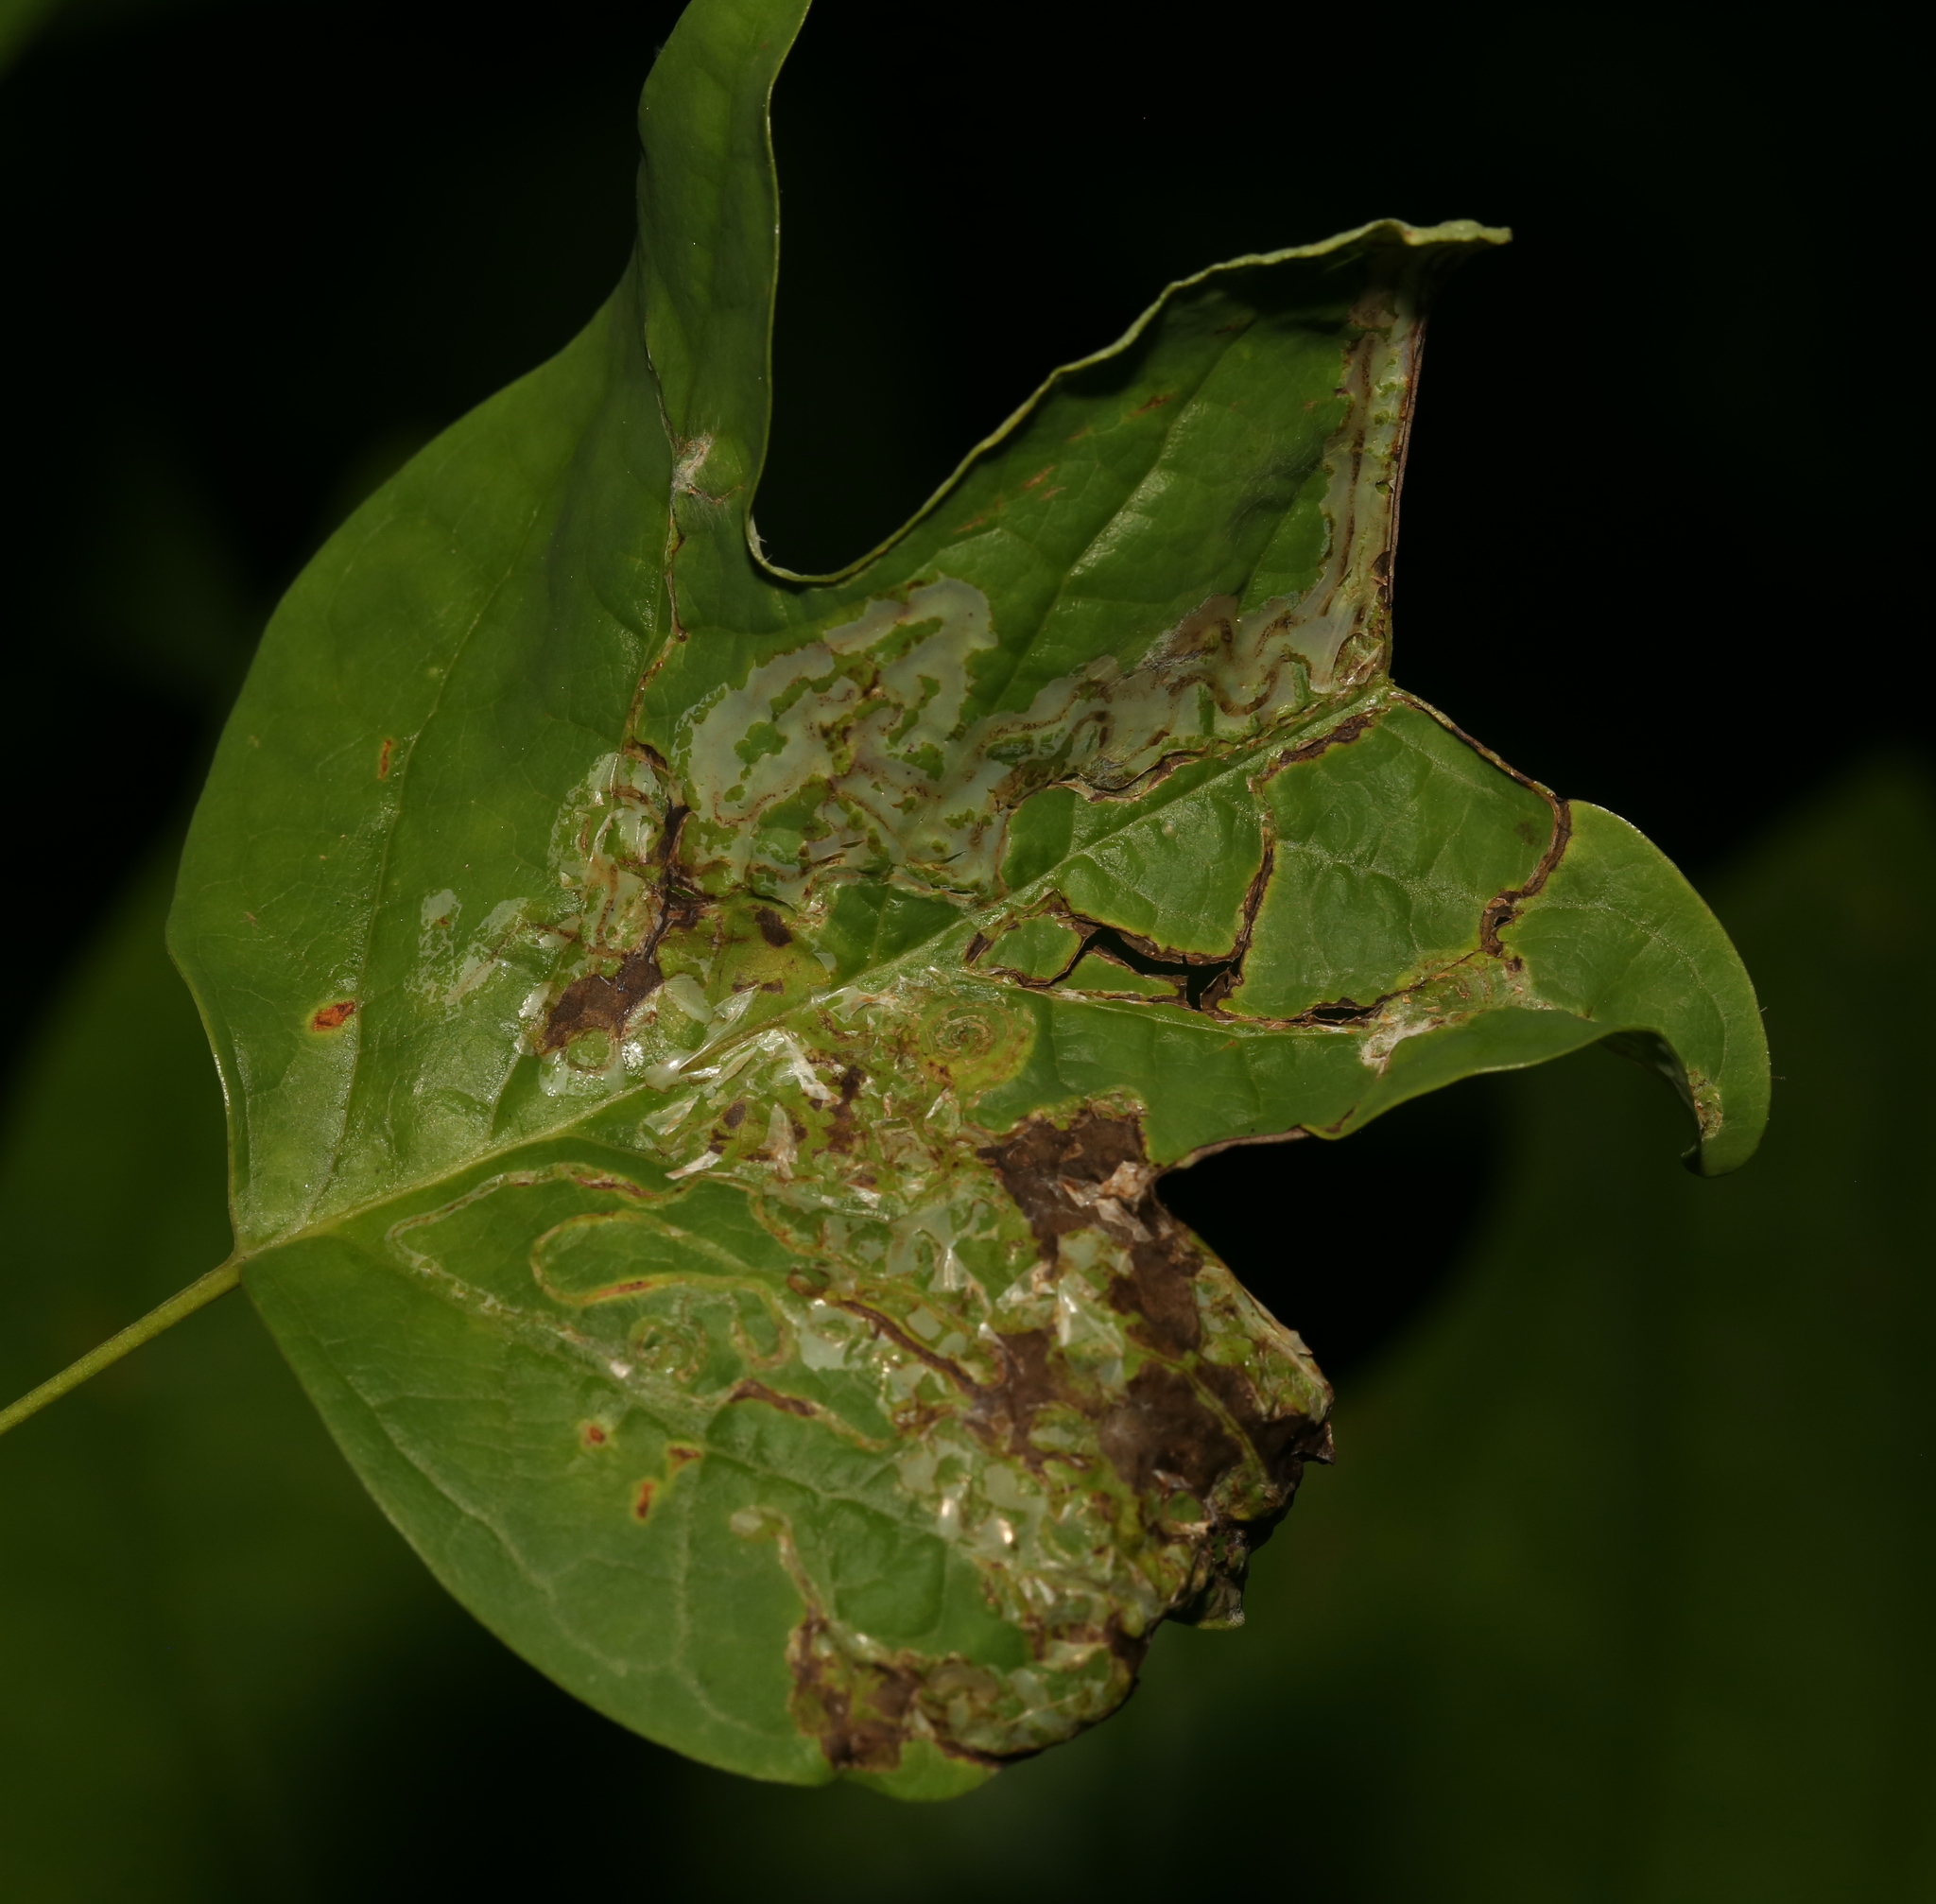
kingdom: Animalia
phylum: Arthropoda
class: Insecta
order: Lepidoptera
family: Gracillariidae
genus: Phyllocnistis
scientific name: Phyllocnistis liriodendronella
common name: Tulip tree leaf miner
